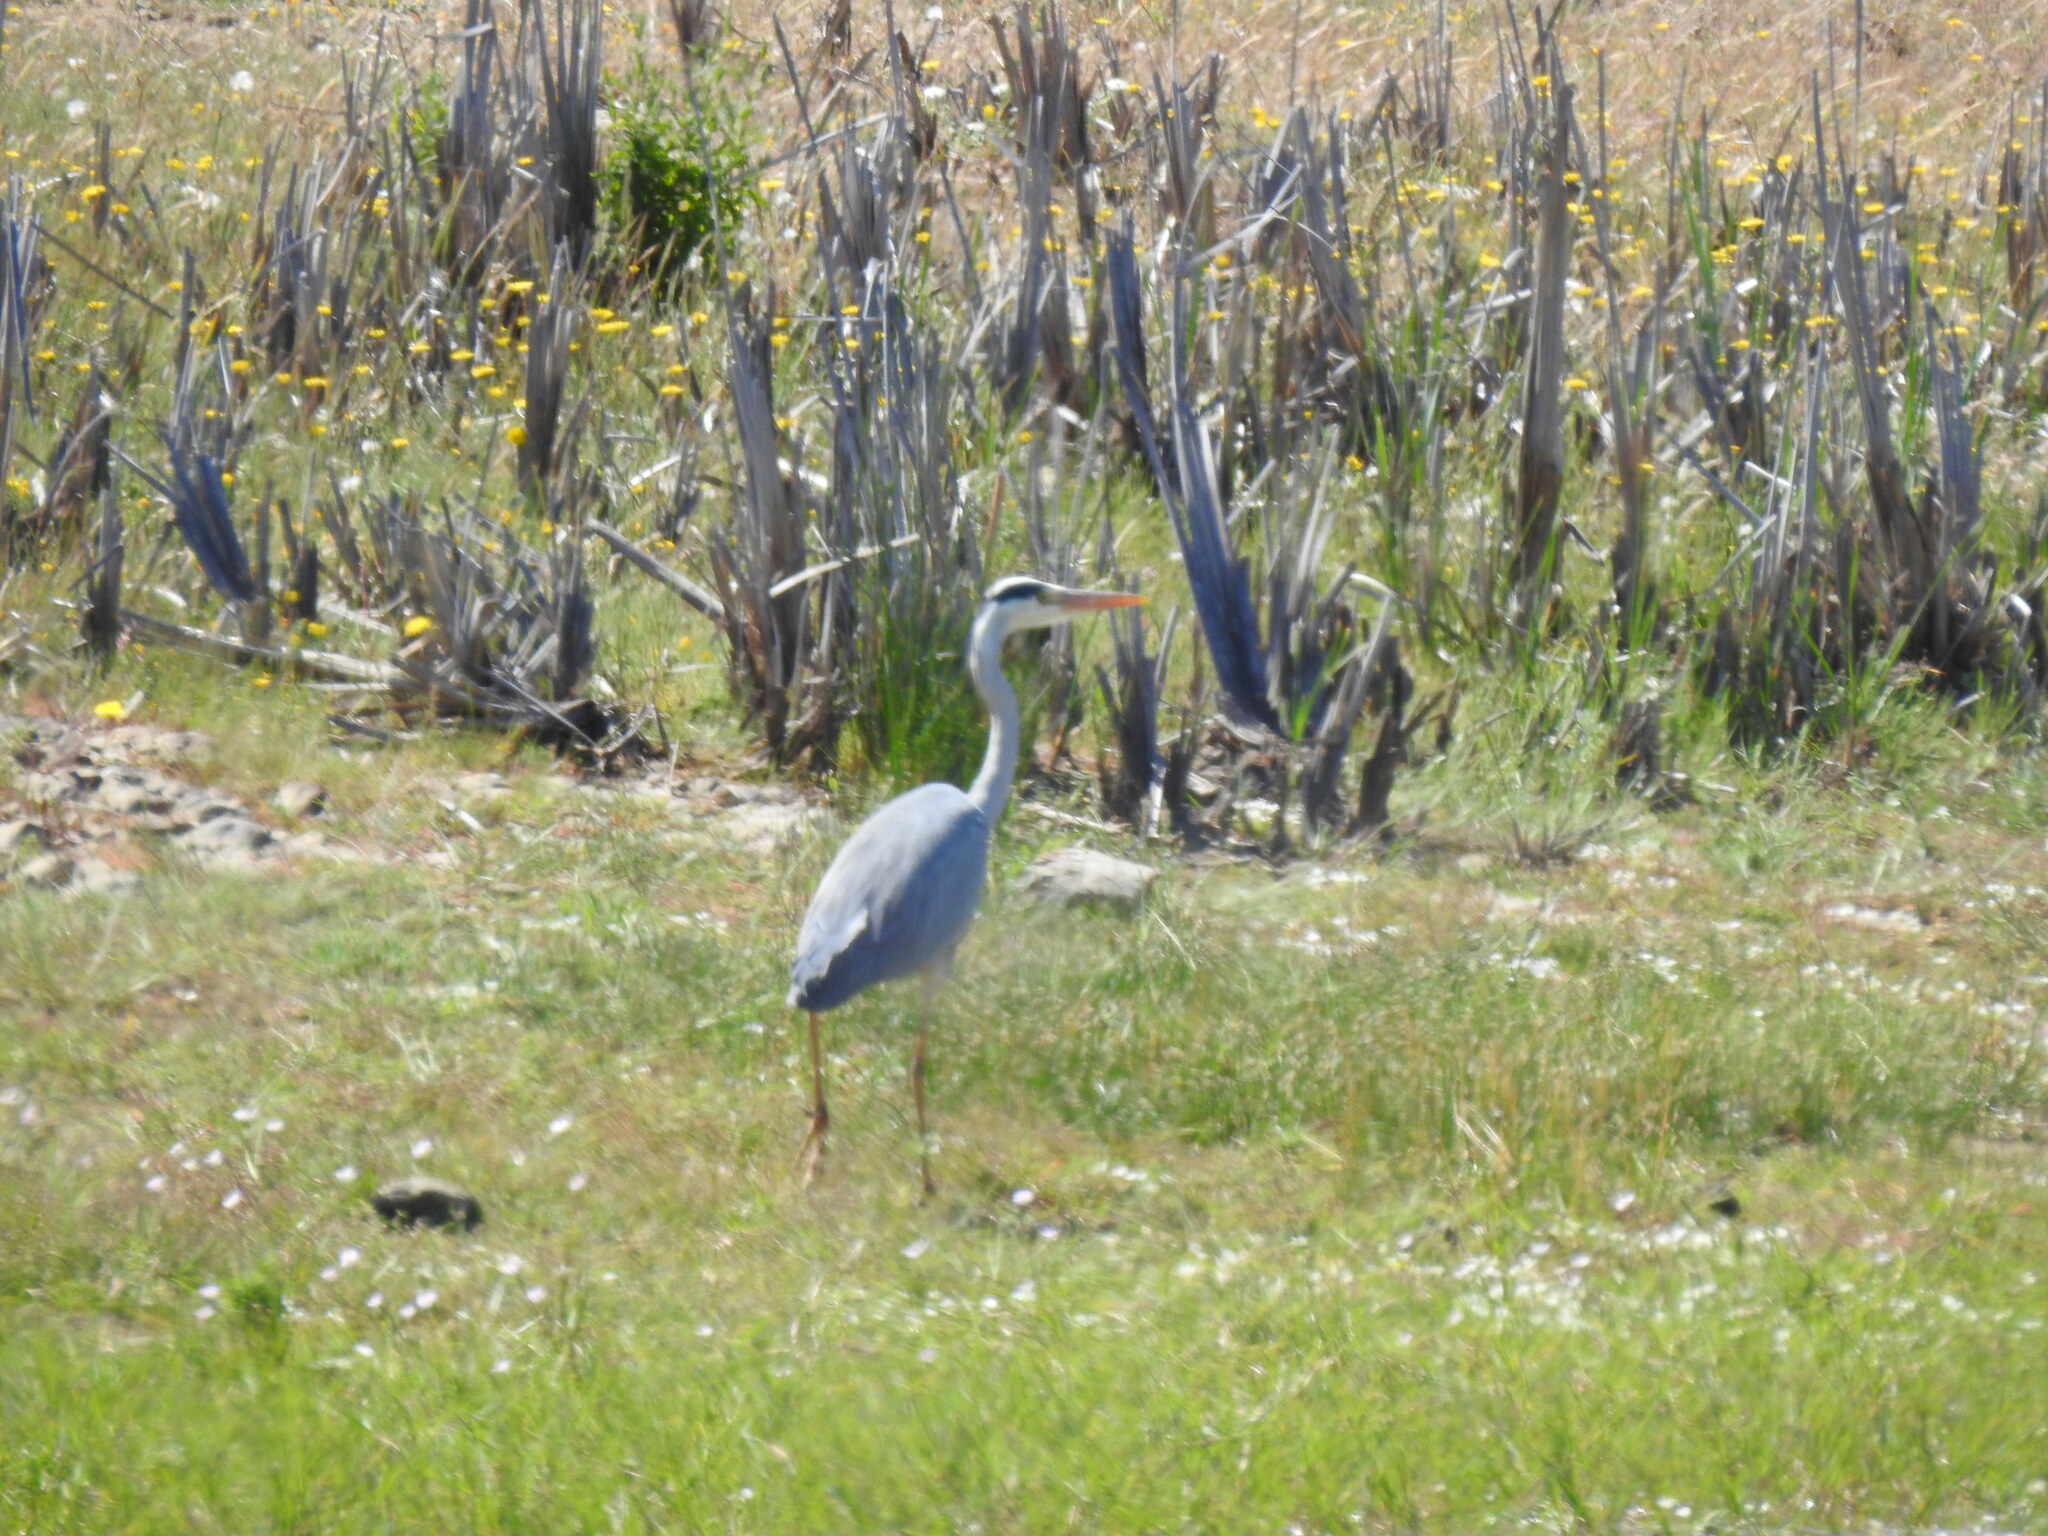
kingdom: Animalia
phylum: Chordata
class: Aves
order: Pelecaniformes
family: Ardeidae
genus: Ardea
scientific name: Ardea cinerea
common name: Grey heron
